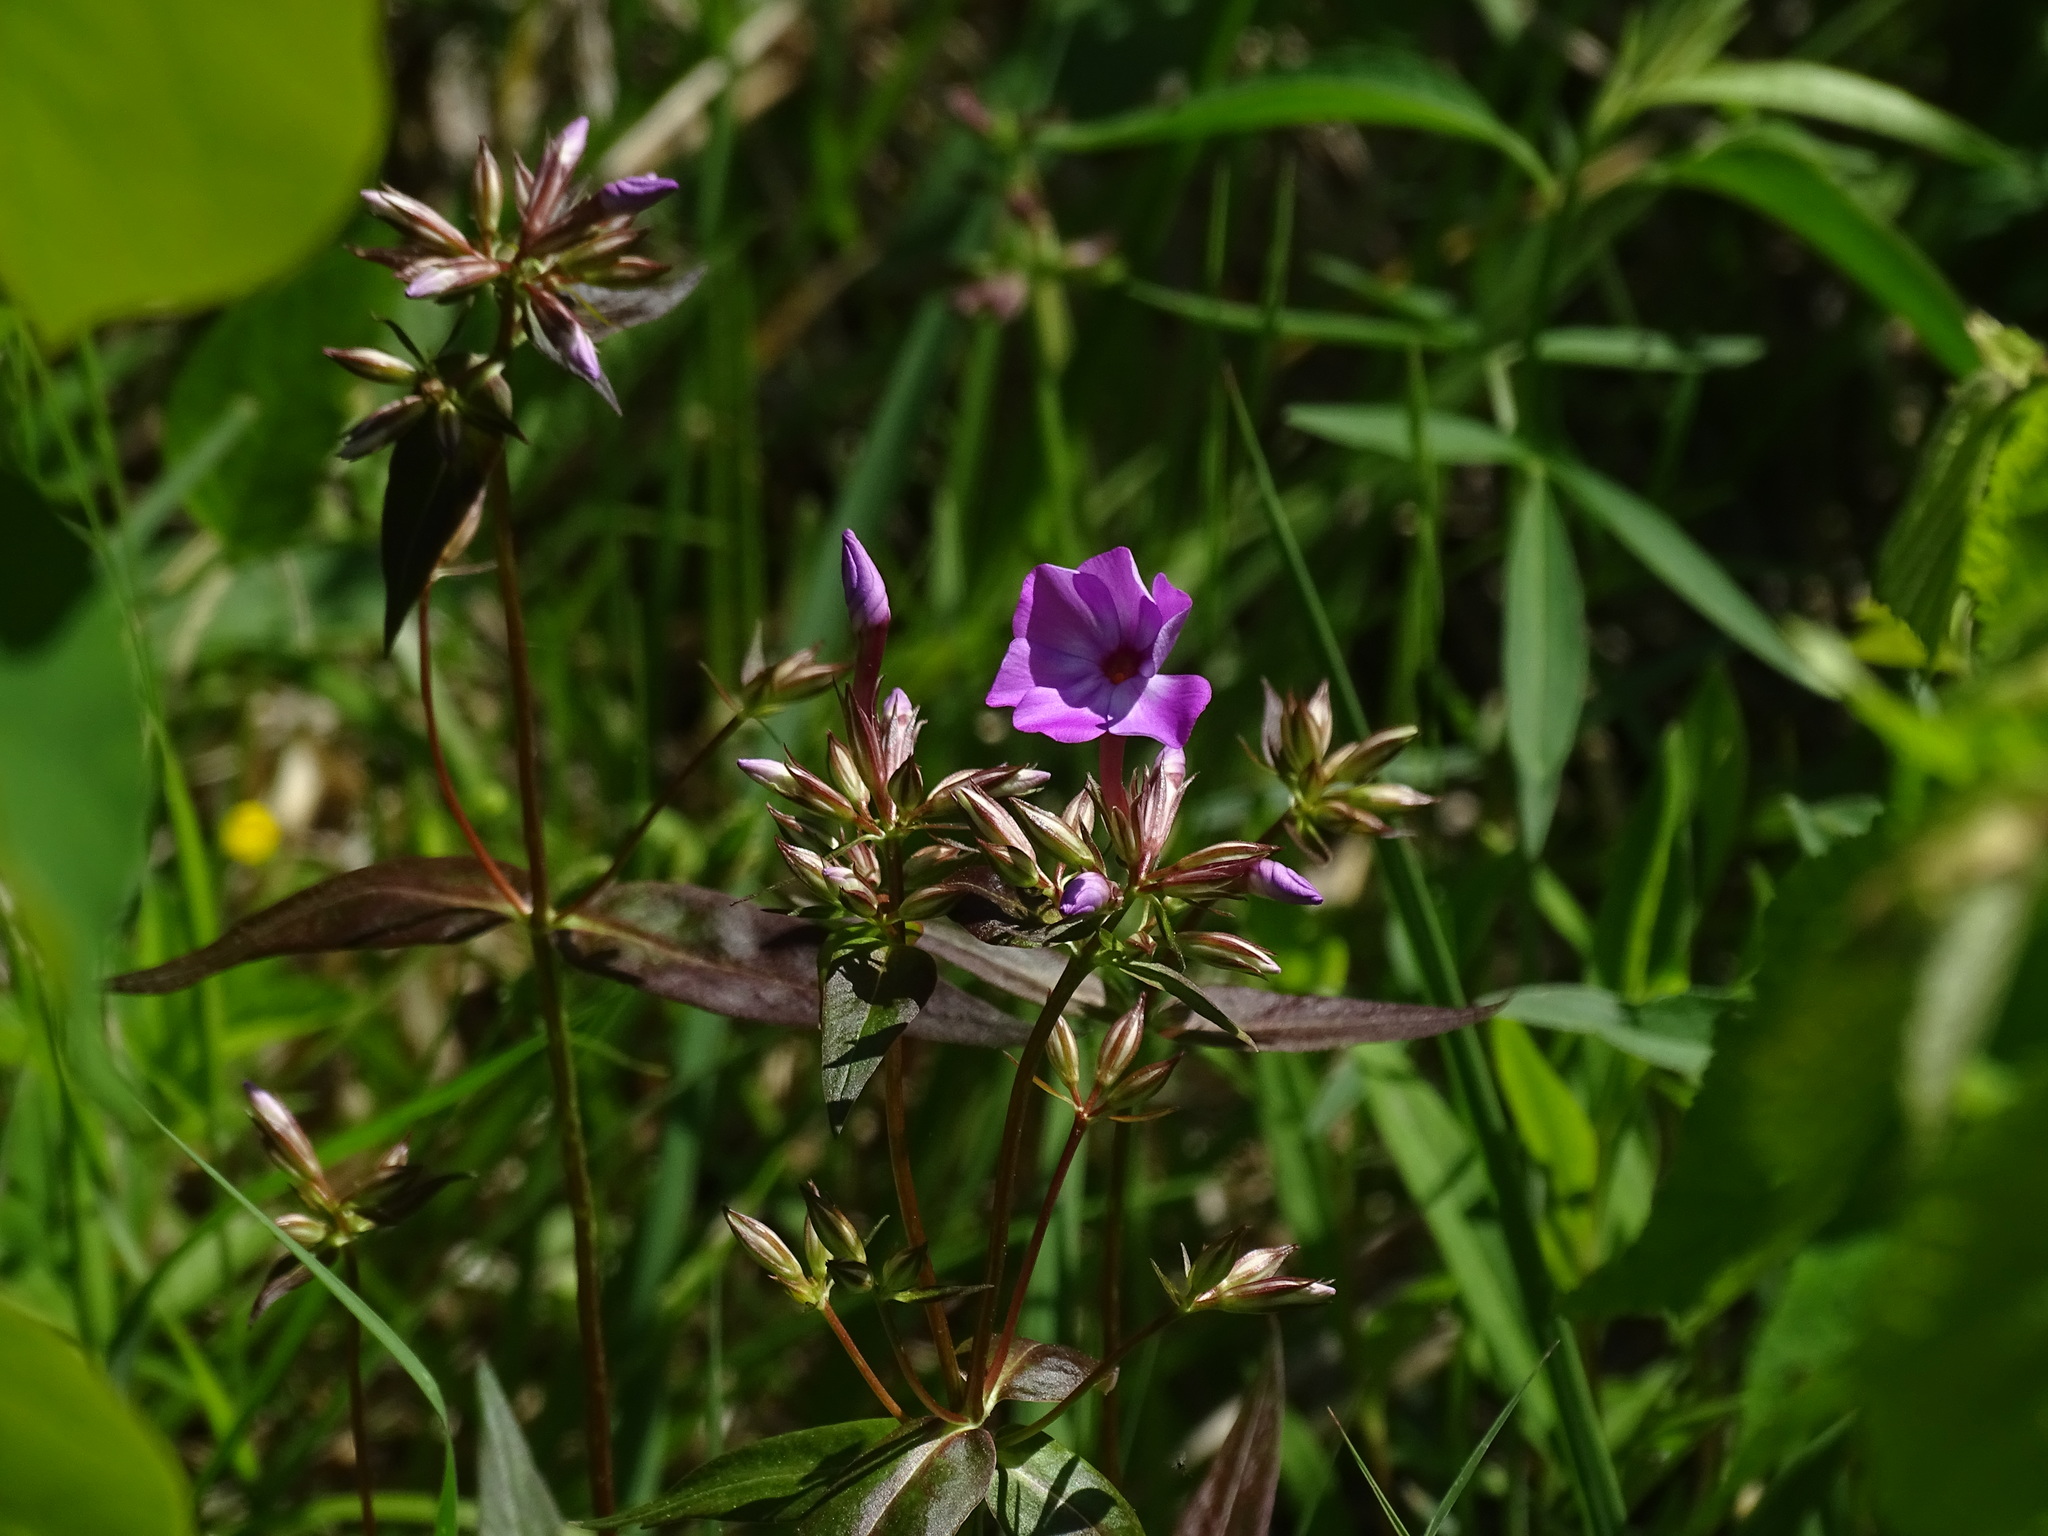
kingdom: Plantae
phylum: Tracheophyta
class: Magnoliopsida
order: Ericales
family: Polemoniaceae
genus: Phlox
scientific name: Phlox glaberrima
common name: Smooth phlox
